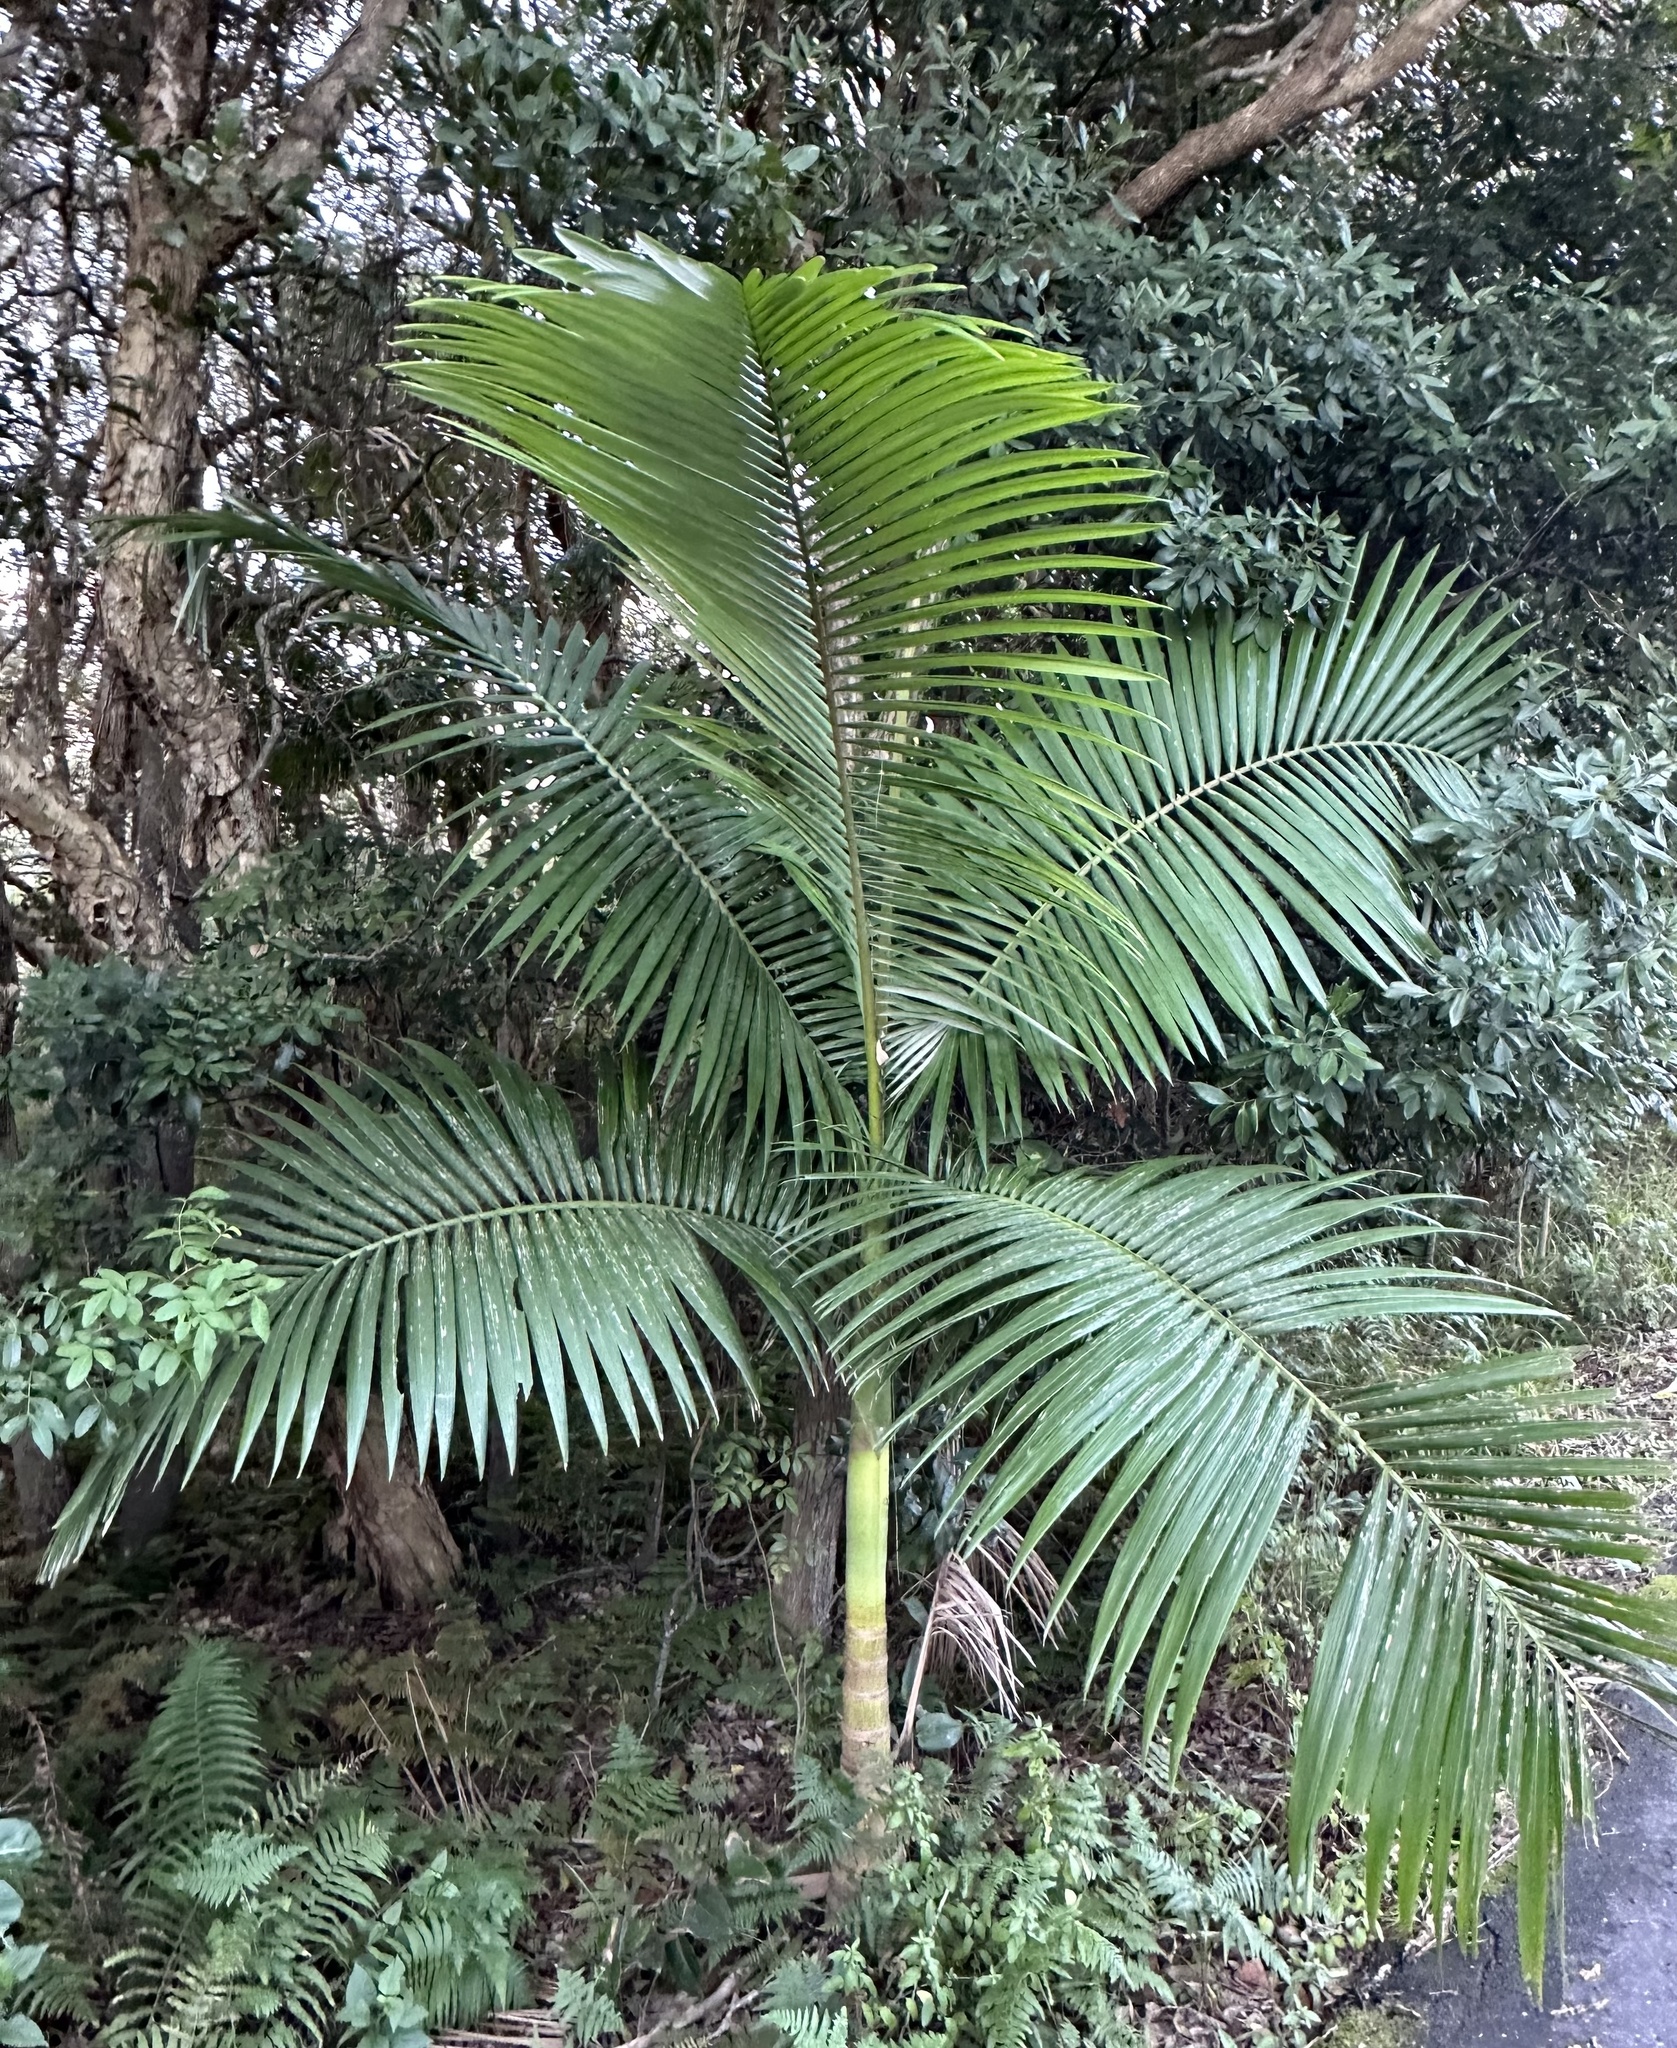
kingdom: Plantae
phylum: Tracheophyta
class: Liliopsida
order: Arecales
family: Arecaceae
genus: Archontophoenix
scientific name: Archontophoenix cunninghamiana
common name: Piccabeen bangalow palm
